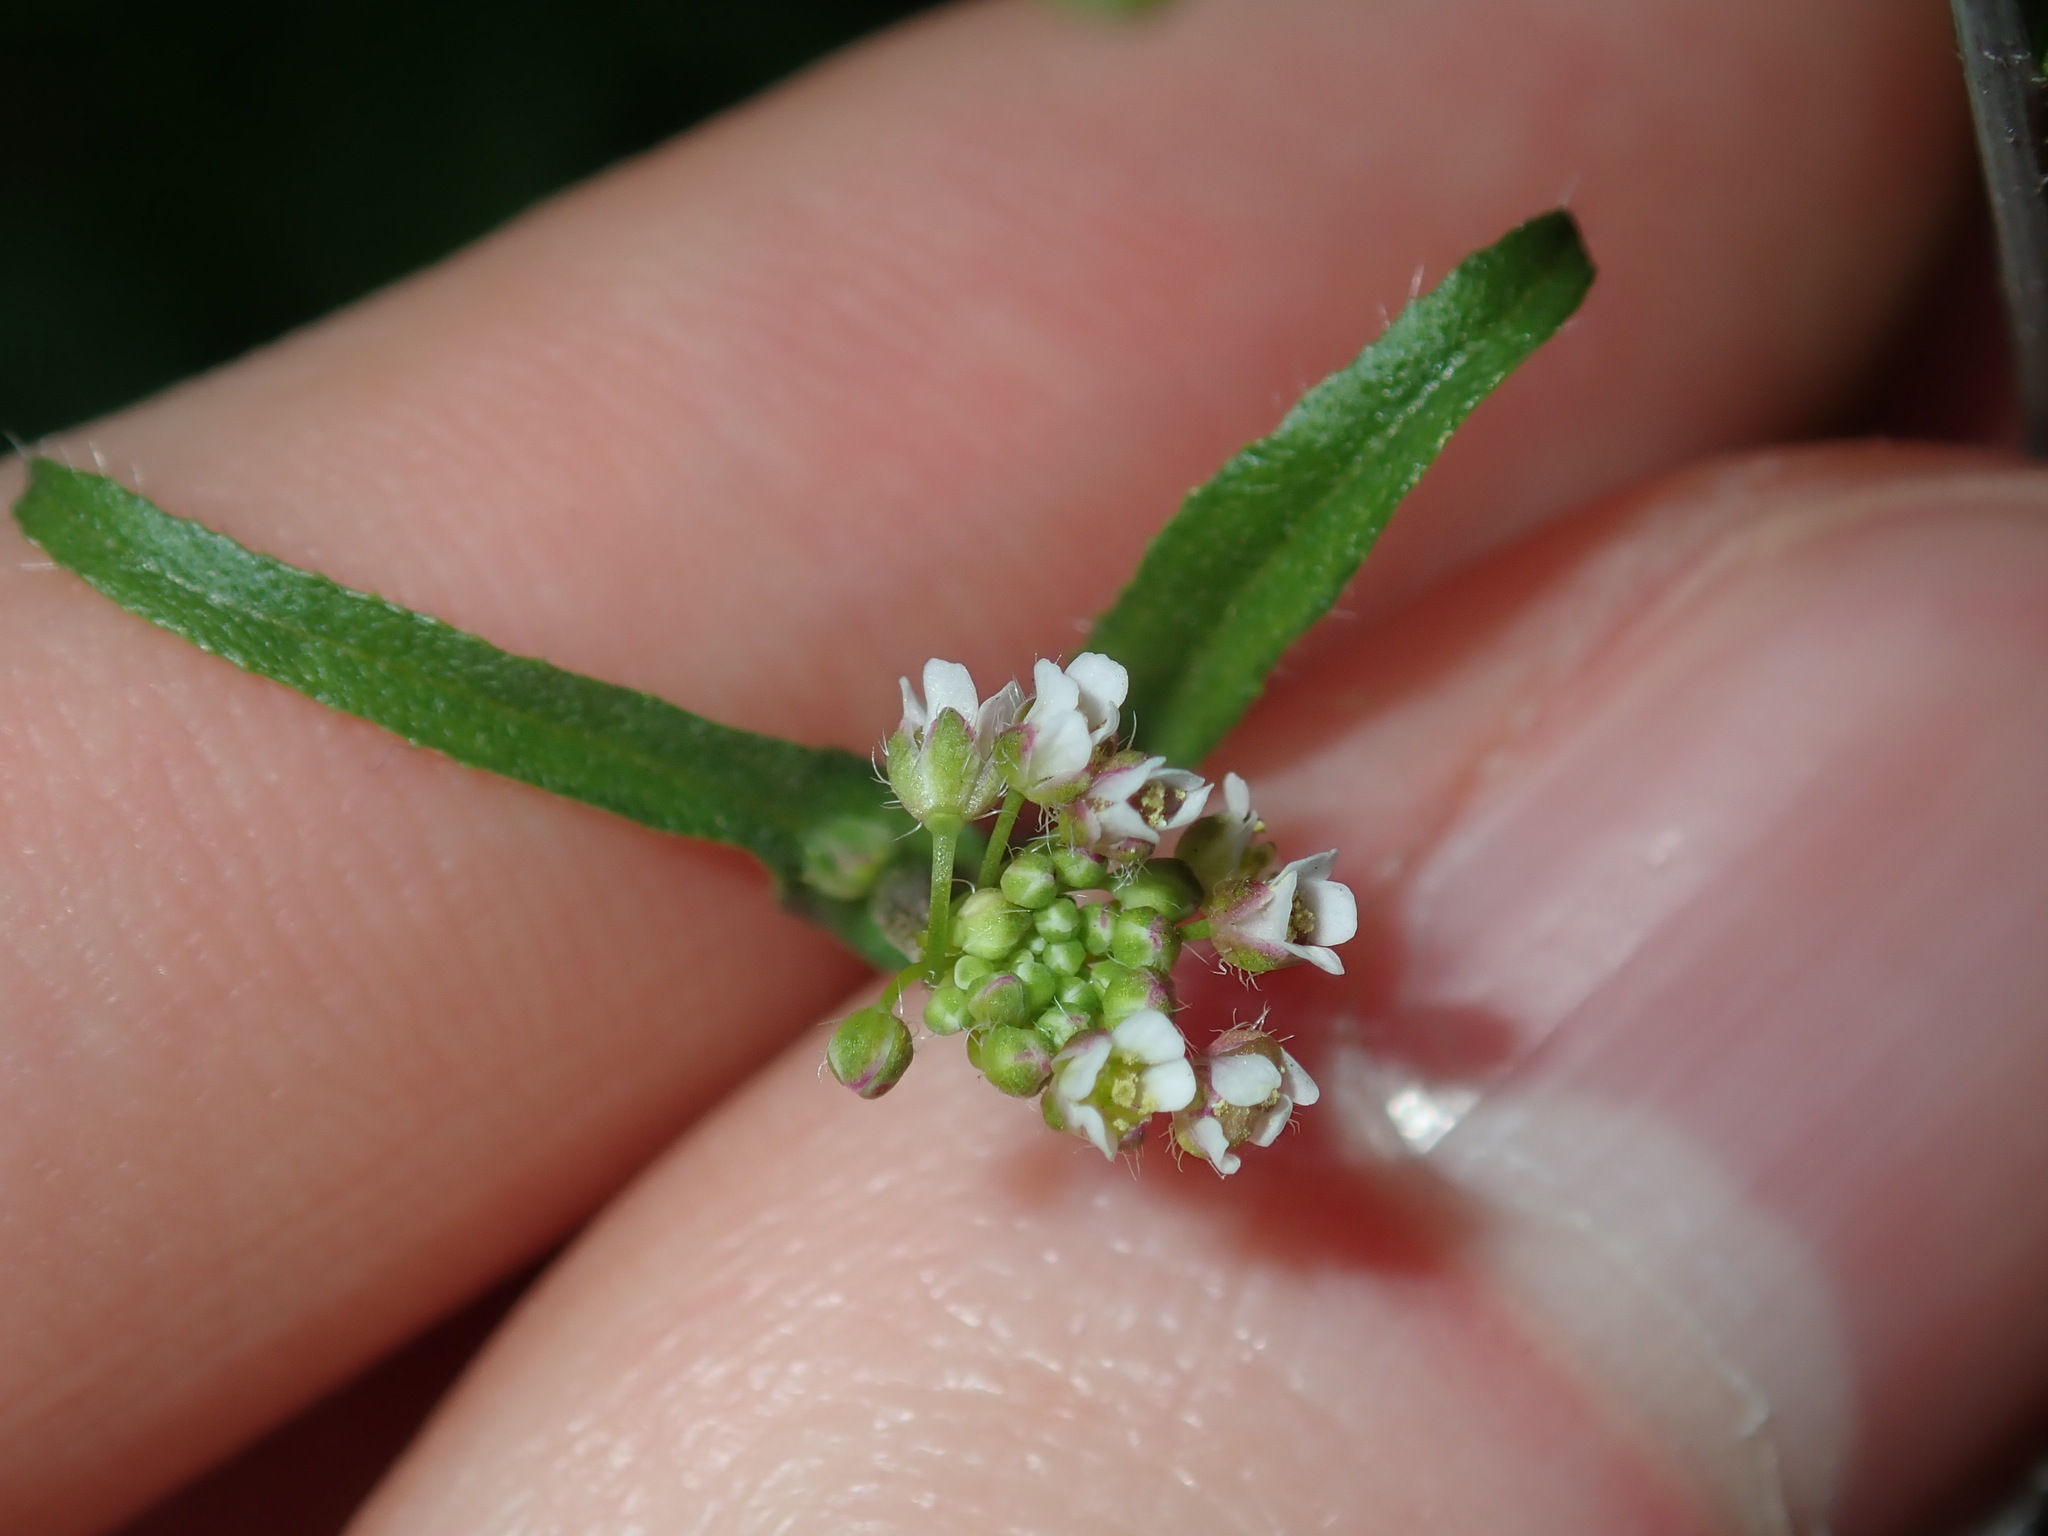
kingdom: Plantae
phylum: Tracheophyta
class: Magnoliopsida
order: Brassicales
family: Brassicaceae
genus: Capsella
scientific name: Capsella bursa-pastoris
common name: Shepherd's purse
